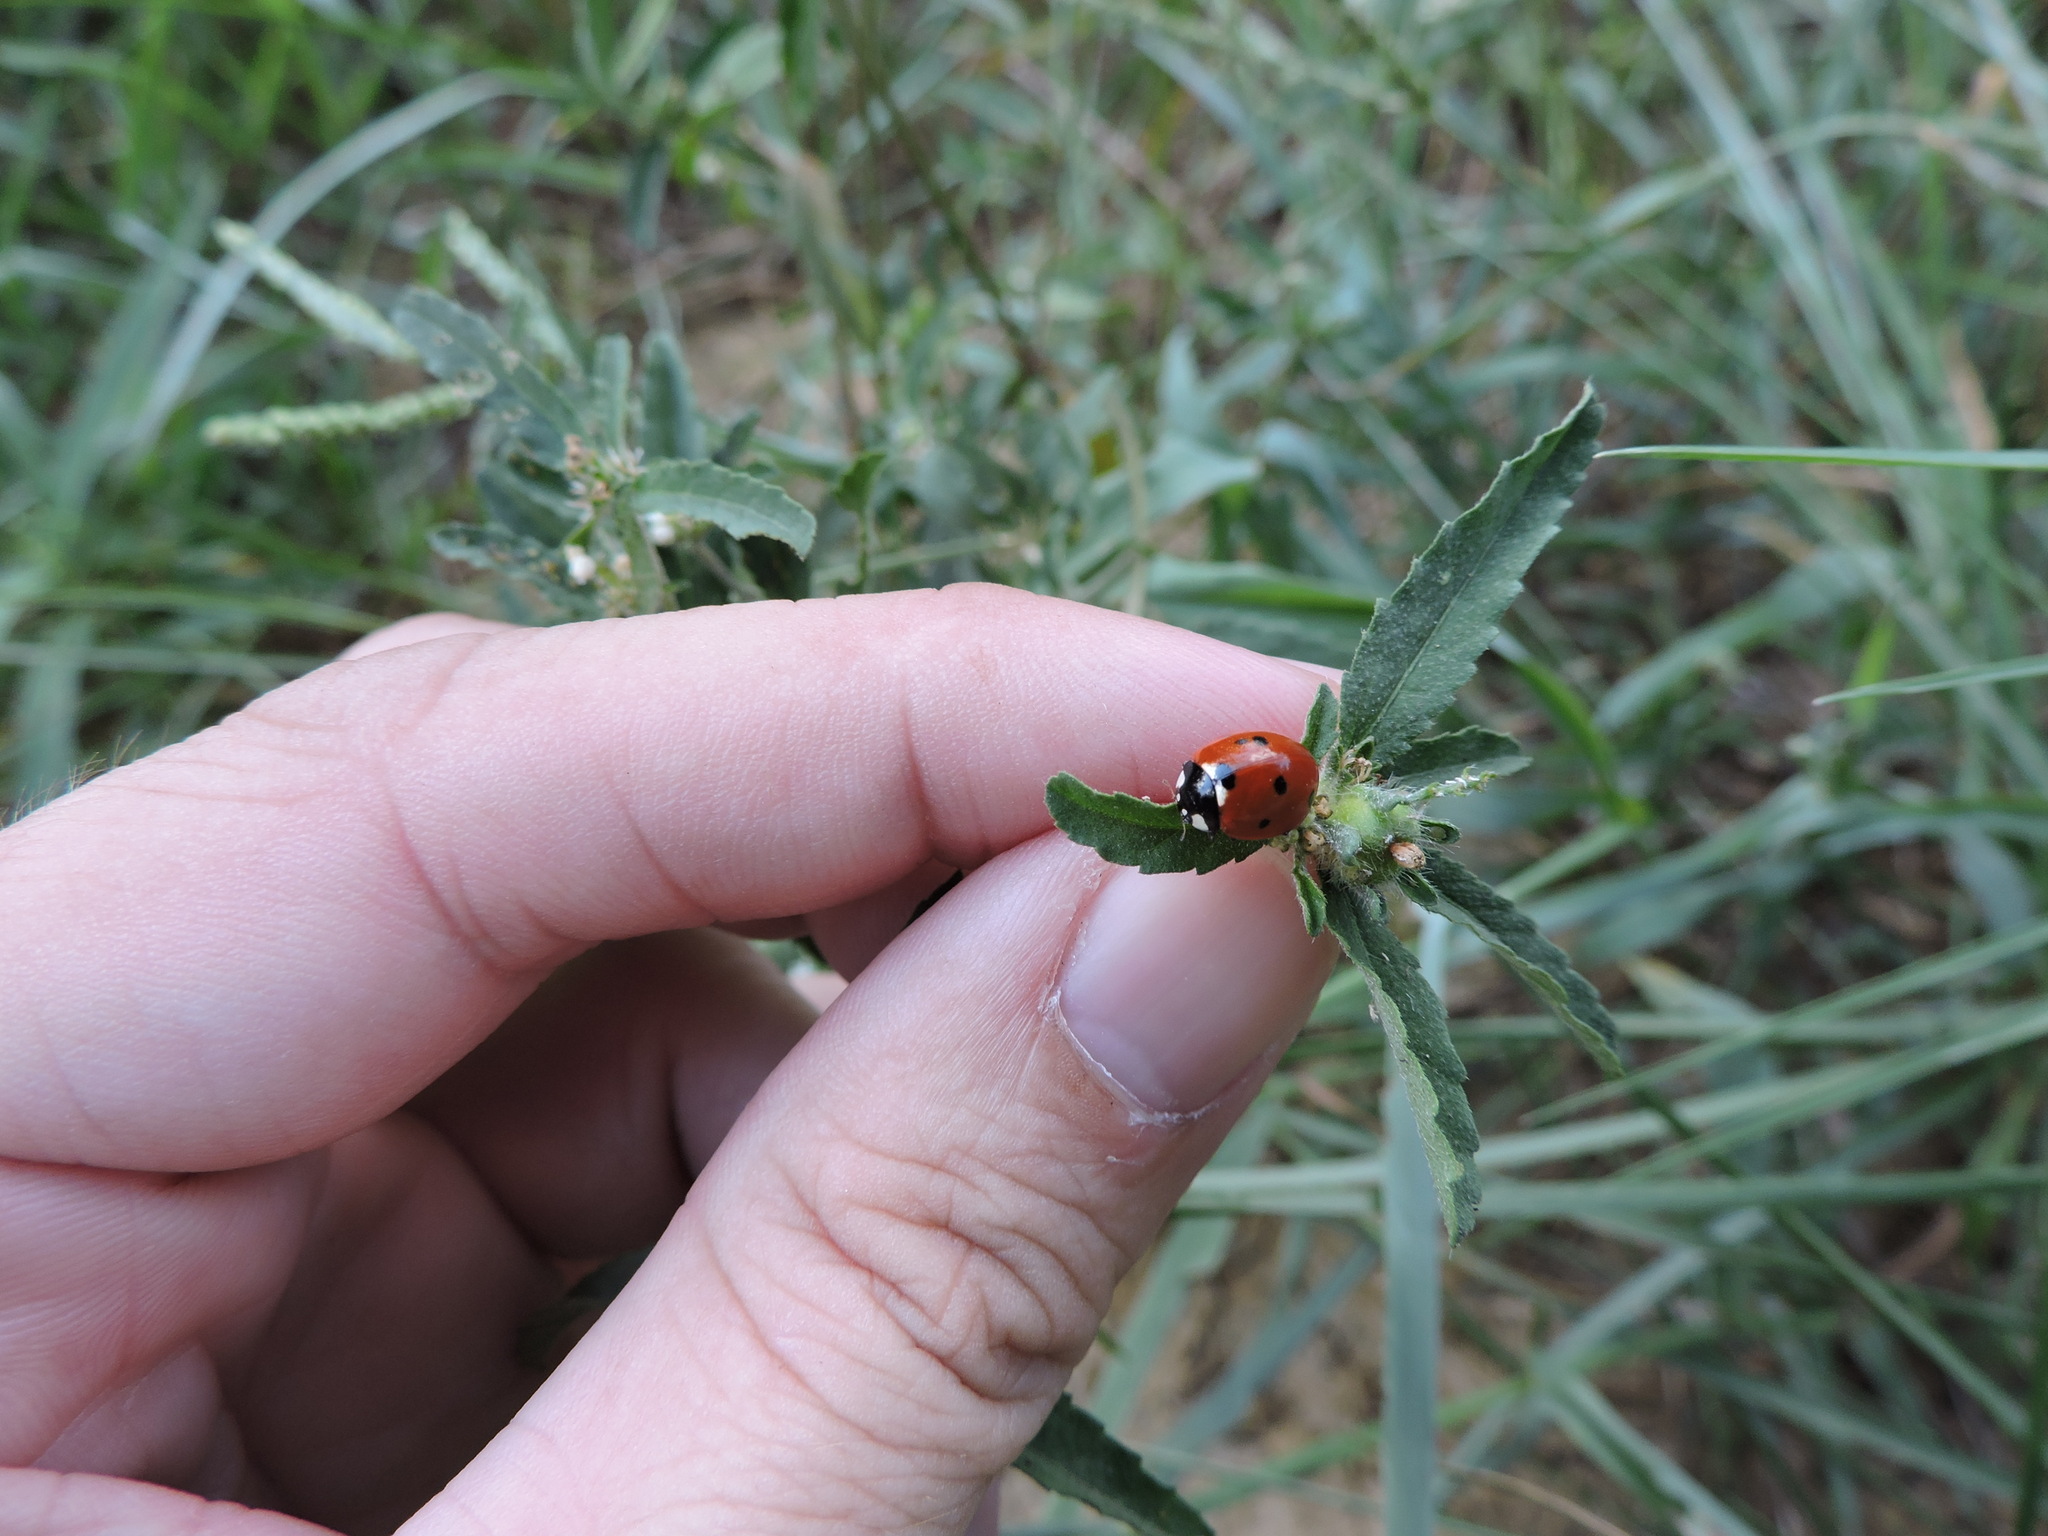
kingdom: Animalia
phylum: Arthropoda
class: Insecta
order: Coleoptera
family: Coccinellidae
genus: Coccinella
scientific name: Coccinella septempunctata
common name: Sevenspotted lady beetle
